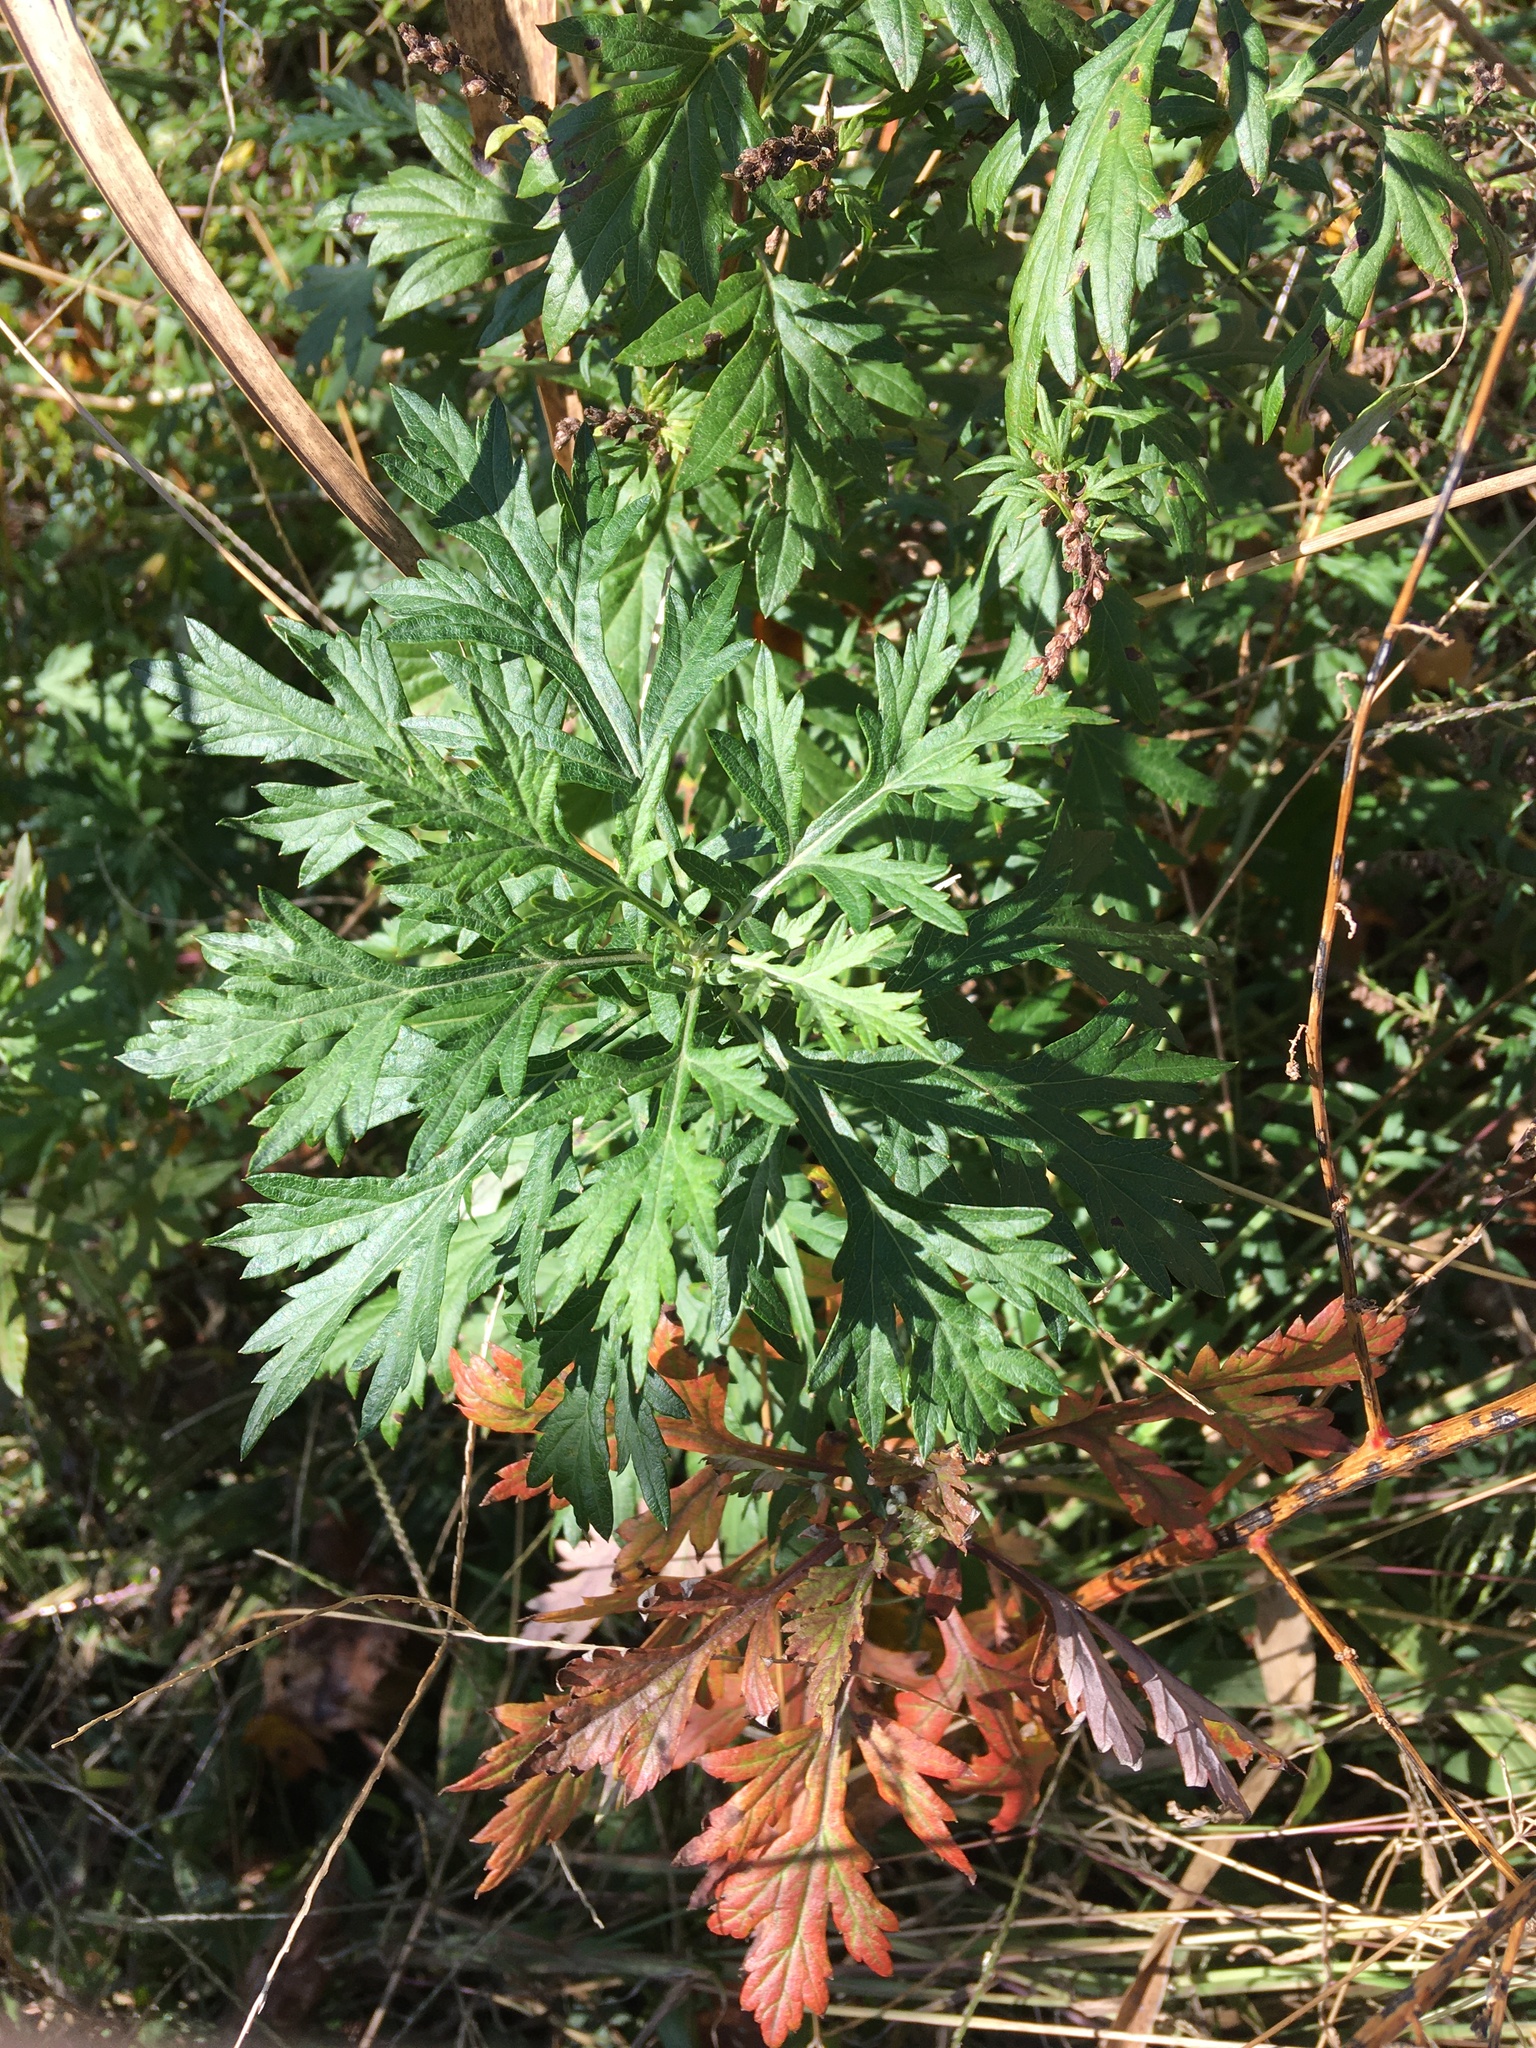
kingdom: Plantae
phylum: Tracheophyta
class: Magnoliopsida
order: Asterales
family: Asteraceae
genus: Artemisia
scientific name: Artemisia vulgaris
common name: Mugwort
